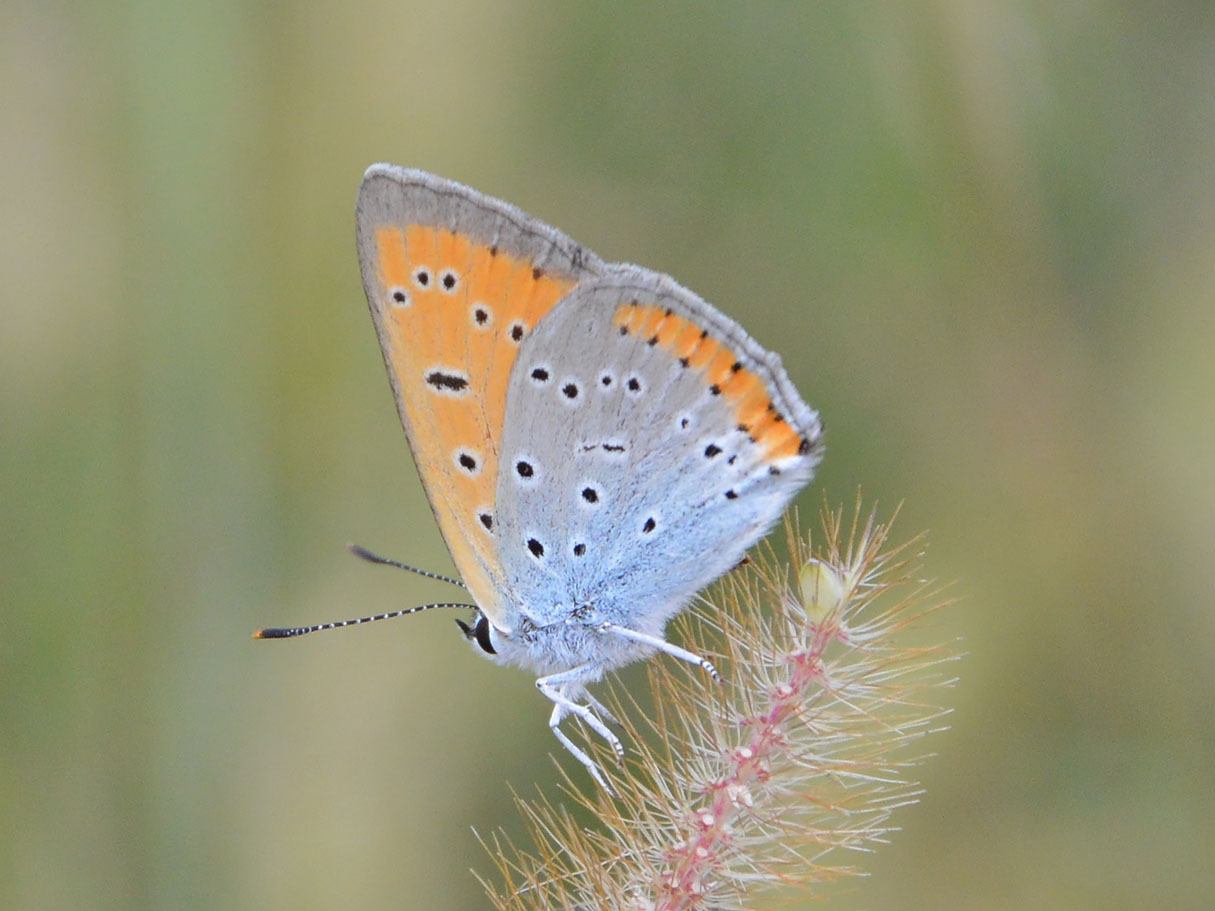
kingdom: Animalia
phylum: Arthropoda
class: Insecta
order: Lepidoptera
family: Lycaenidae
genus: Lycaena
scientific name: Lycaena dispar
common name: Large copper
